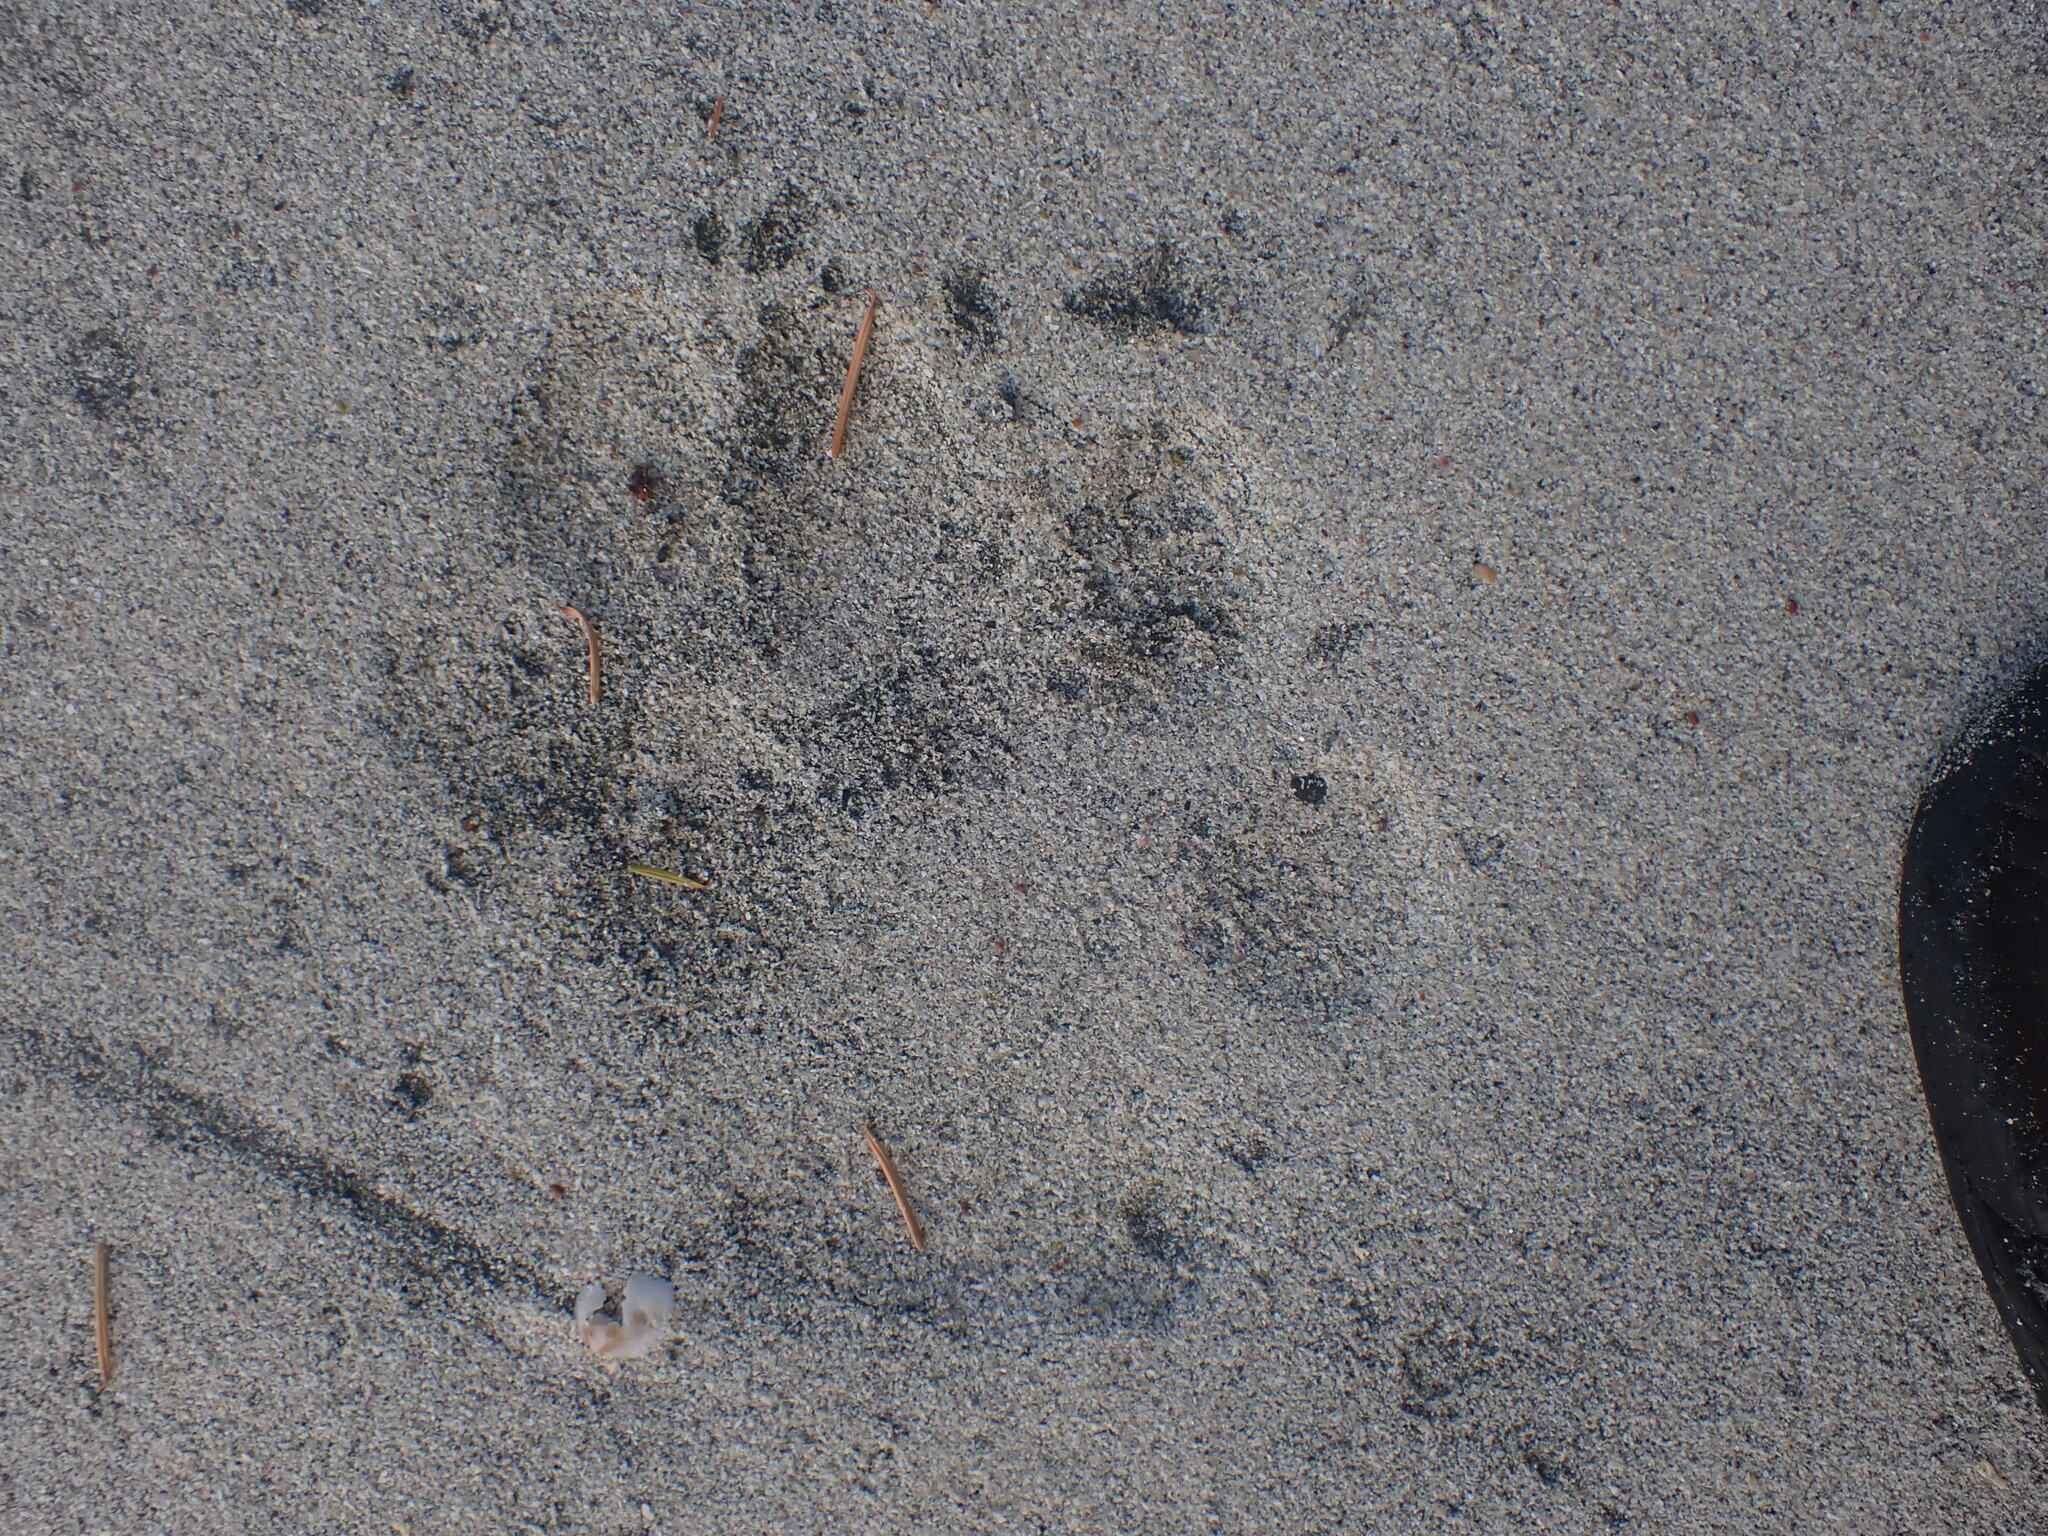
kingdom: Animalia
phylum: Chordata
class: Mammalia
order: Carnivora
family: Canidae
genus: Canis
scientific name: Canis lupus
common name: Gray wolf
